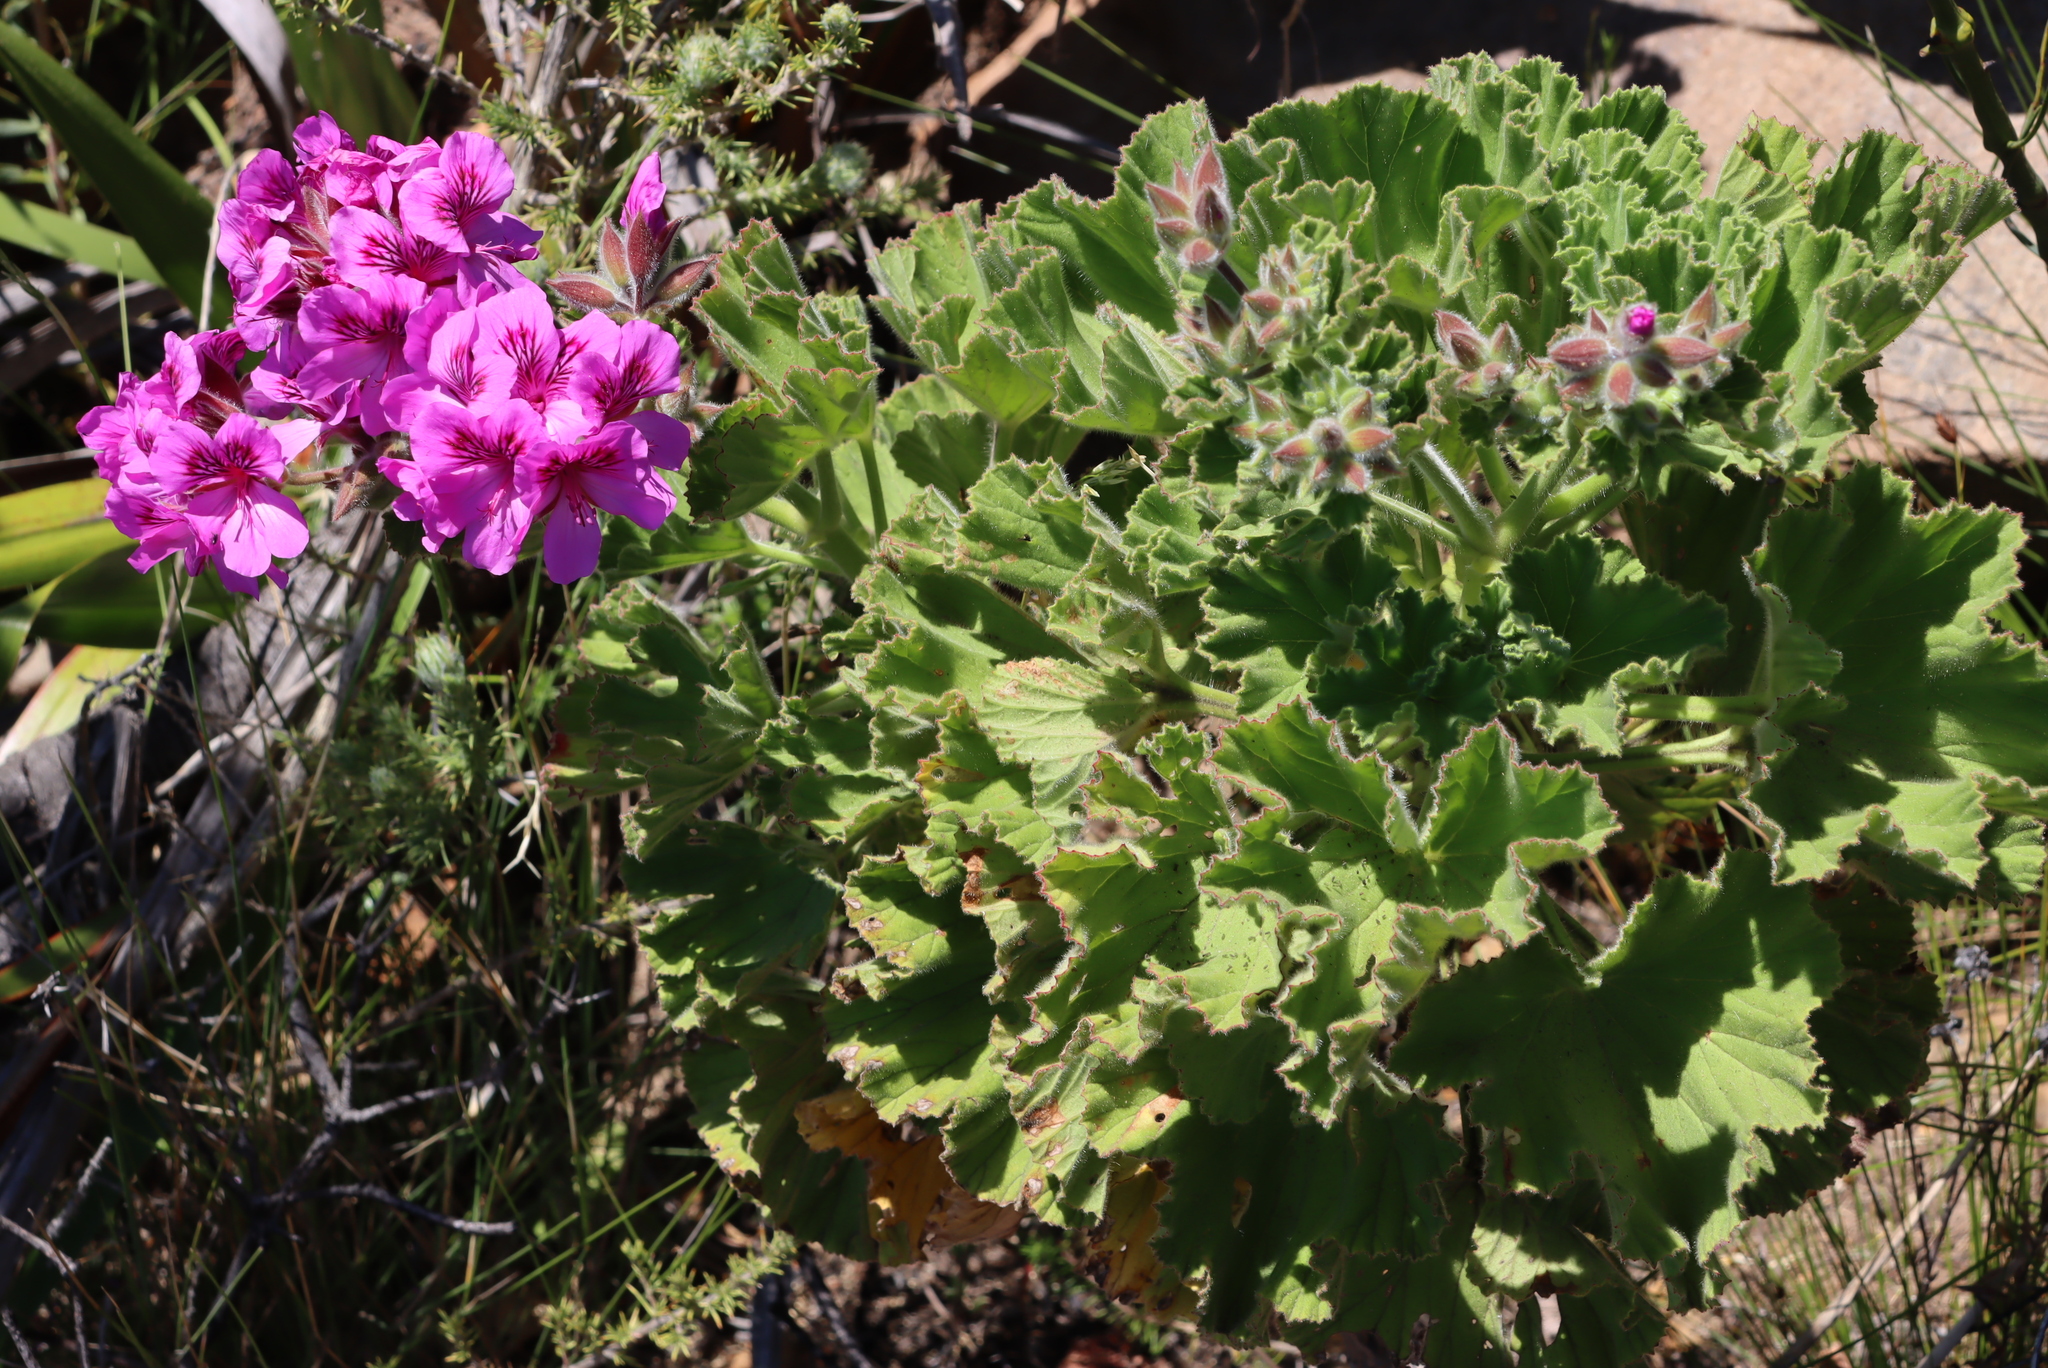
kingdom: Plantae
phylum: Tracheophyta
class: Magnoliopsida
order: Geraniales
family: Geraniaceae
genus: Pelargonium
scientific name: Pelargonium cucullatum
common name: Tree pelargonium
